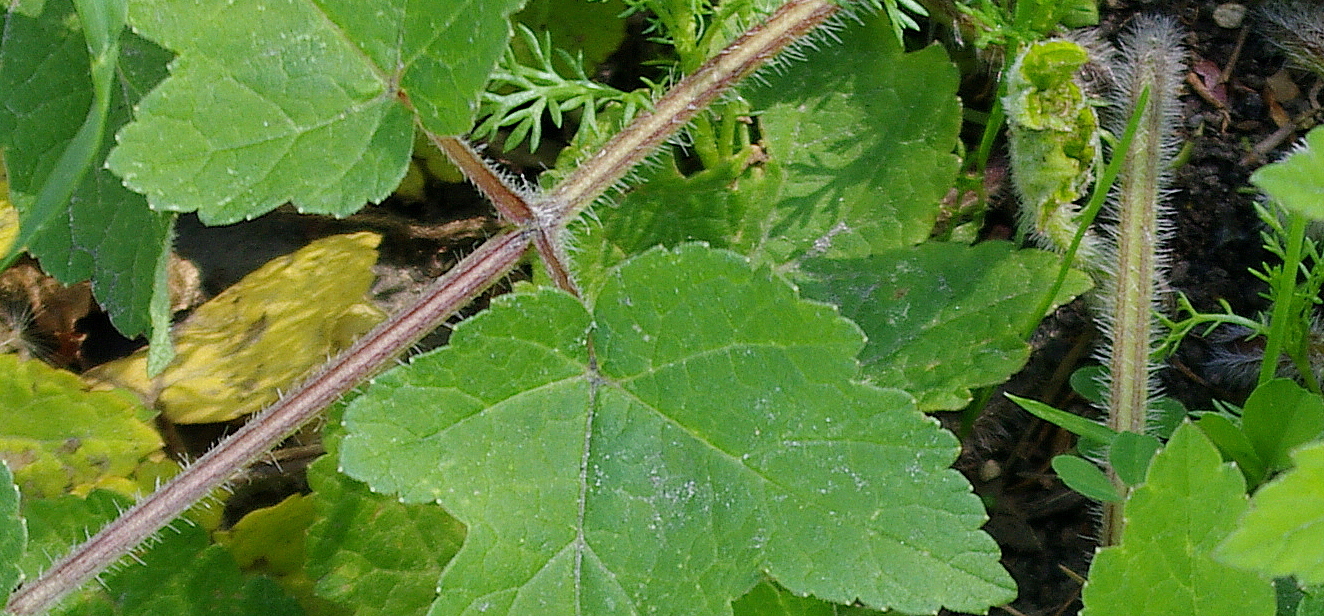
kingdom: Plantae
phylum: Tracheophyta
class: Magnoliopsida
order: Apiales
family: Apiaceae
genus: Heracleum
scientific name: Heracleum sphondylium
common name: Hogweed
